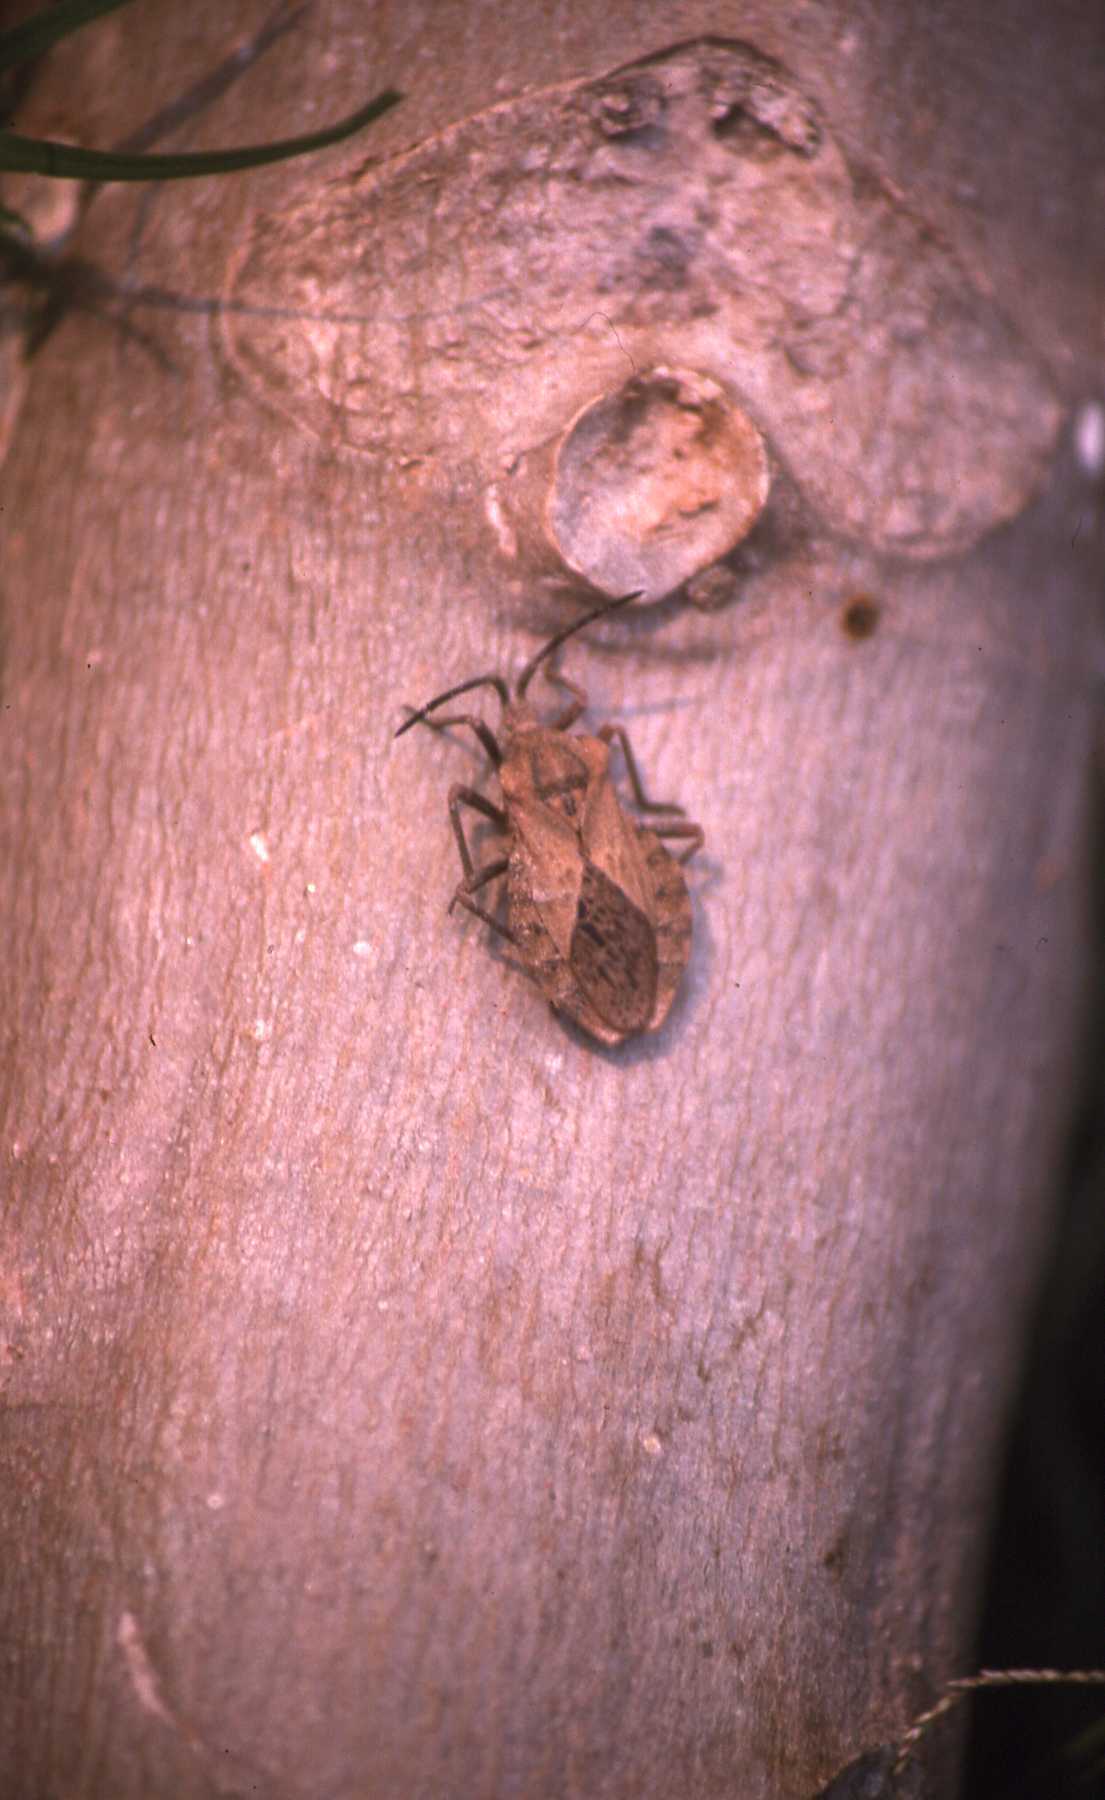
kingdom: Animalia
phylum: Arthropoda
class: Insecta
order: Hemiptera
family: Coreidae
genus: Spartocera
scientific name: Spartocera fusca
